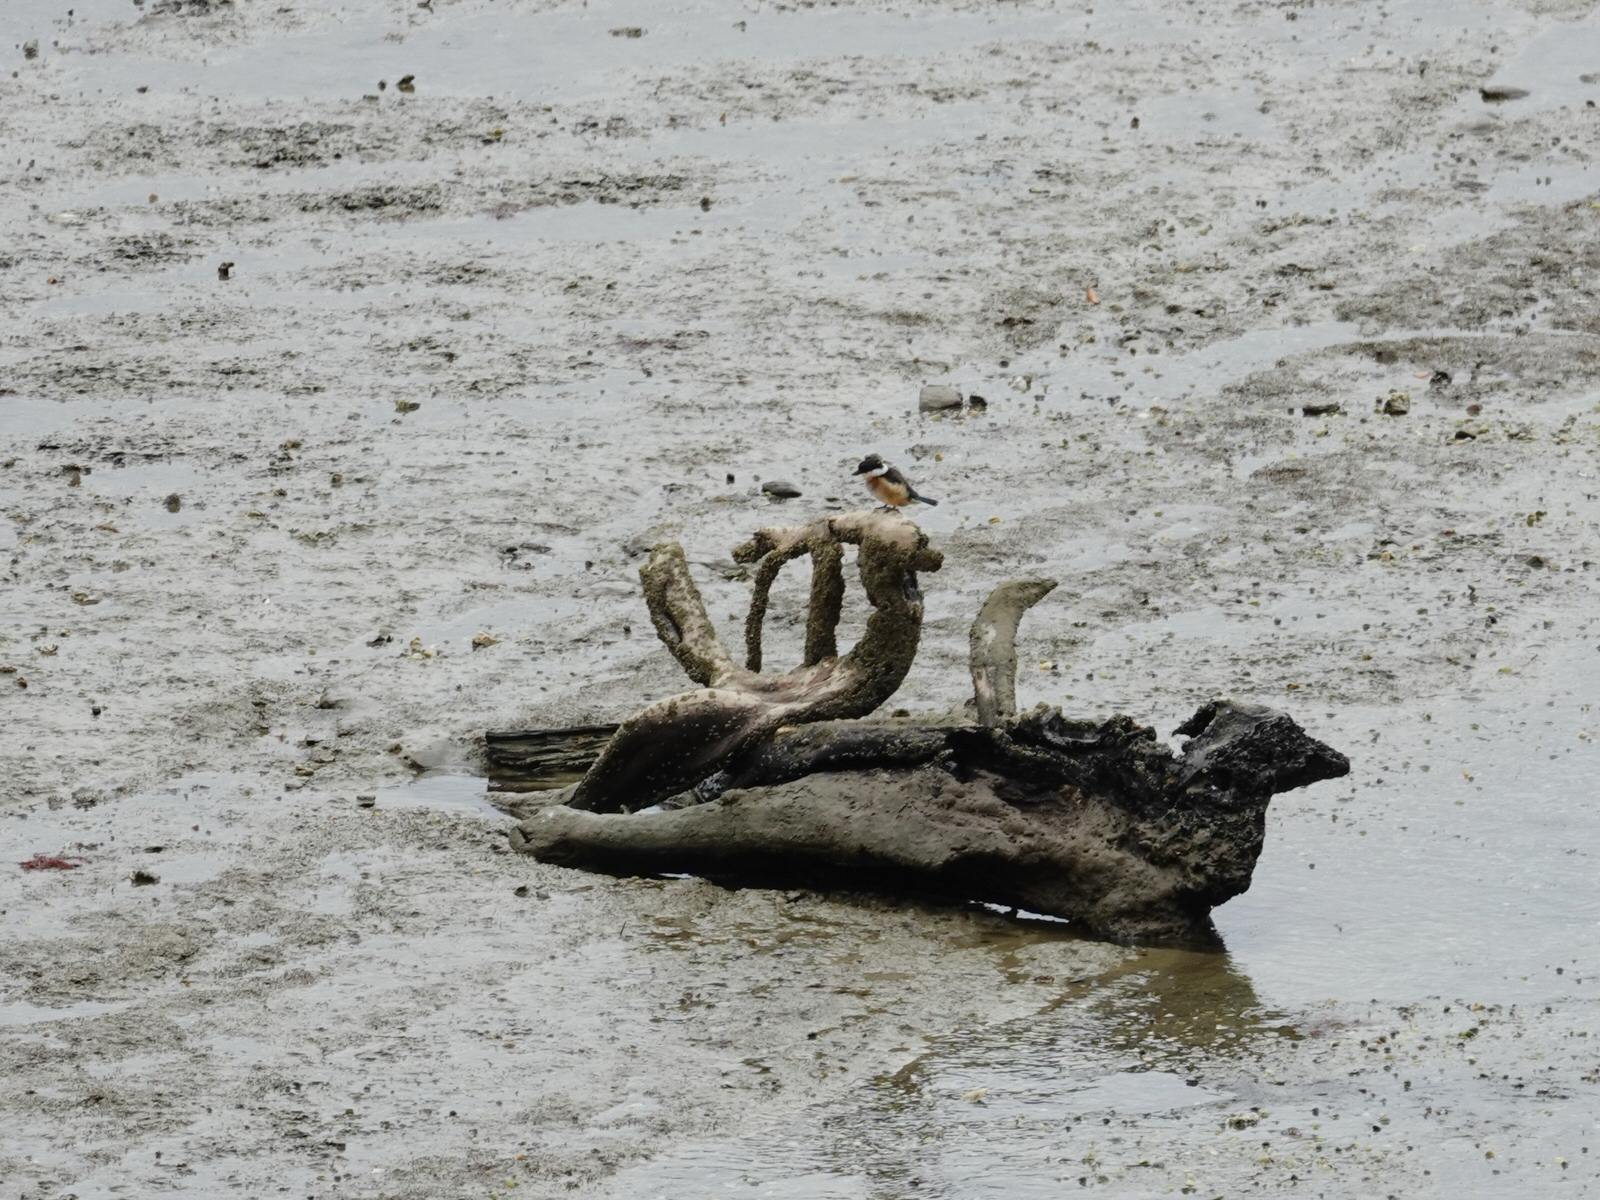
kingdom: Animalia
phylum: Chordata
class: Aves
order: Coraciiformes
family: Alcedinidae
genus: Todiramphus
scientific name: Todiramphus sanctus
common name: Sacred kingfisher
